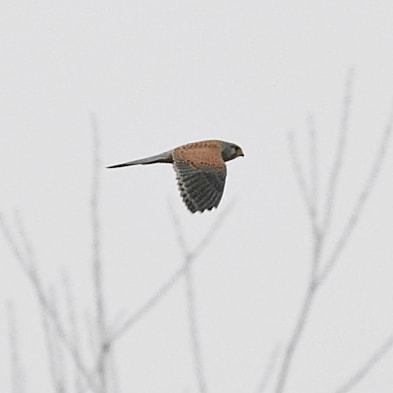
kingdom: Animalia
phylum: Chordata
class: Aves
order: Falconiformes
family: Falconidae
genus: Falco
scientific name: Falco tinnunculus
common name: Common kestrel
